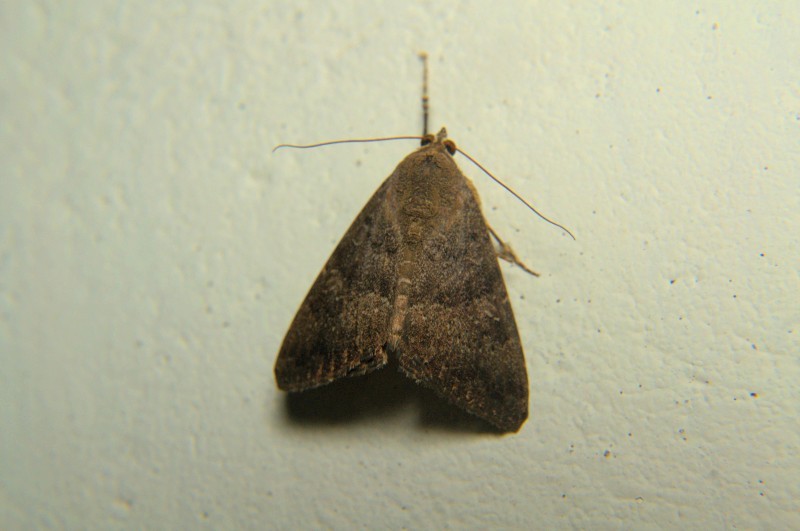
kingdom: Animalia
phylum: Arthropoda
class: Insecta
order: Lepidoptera
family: Noctuidae
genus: Amyna
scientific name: Amyna punctum
